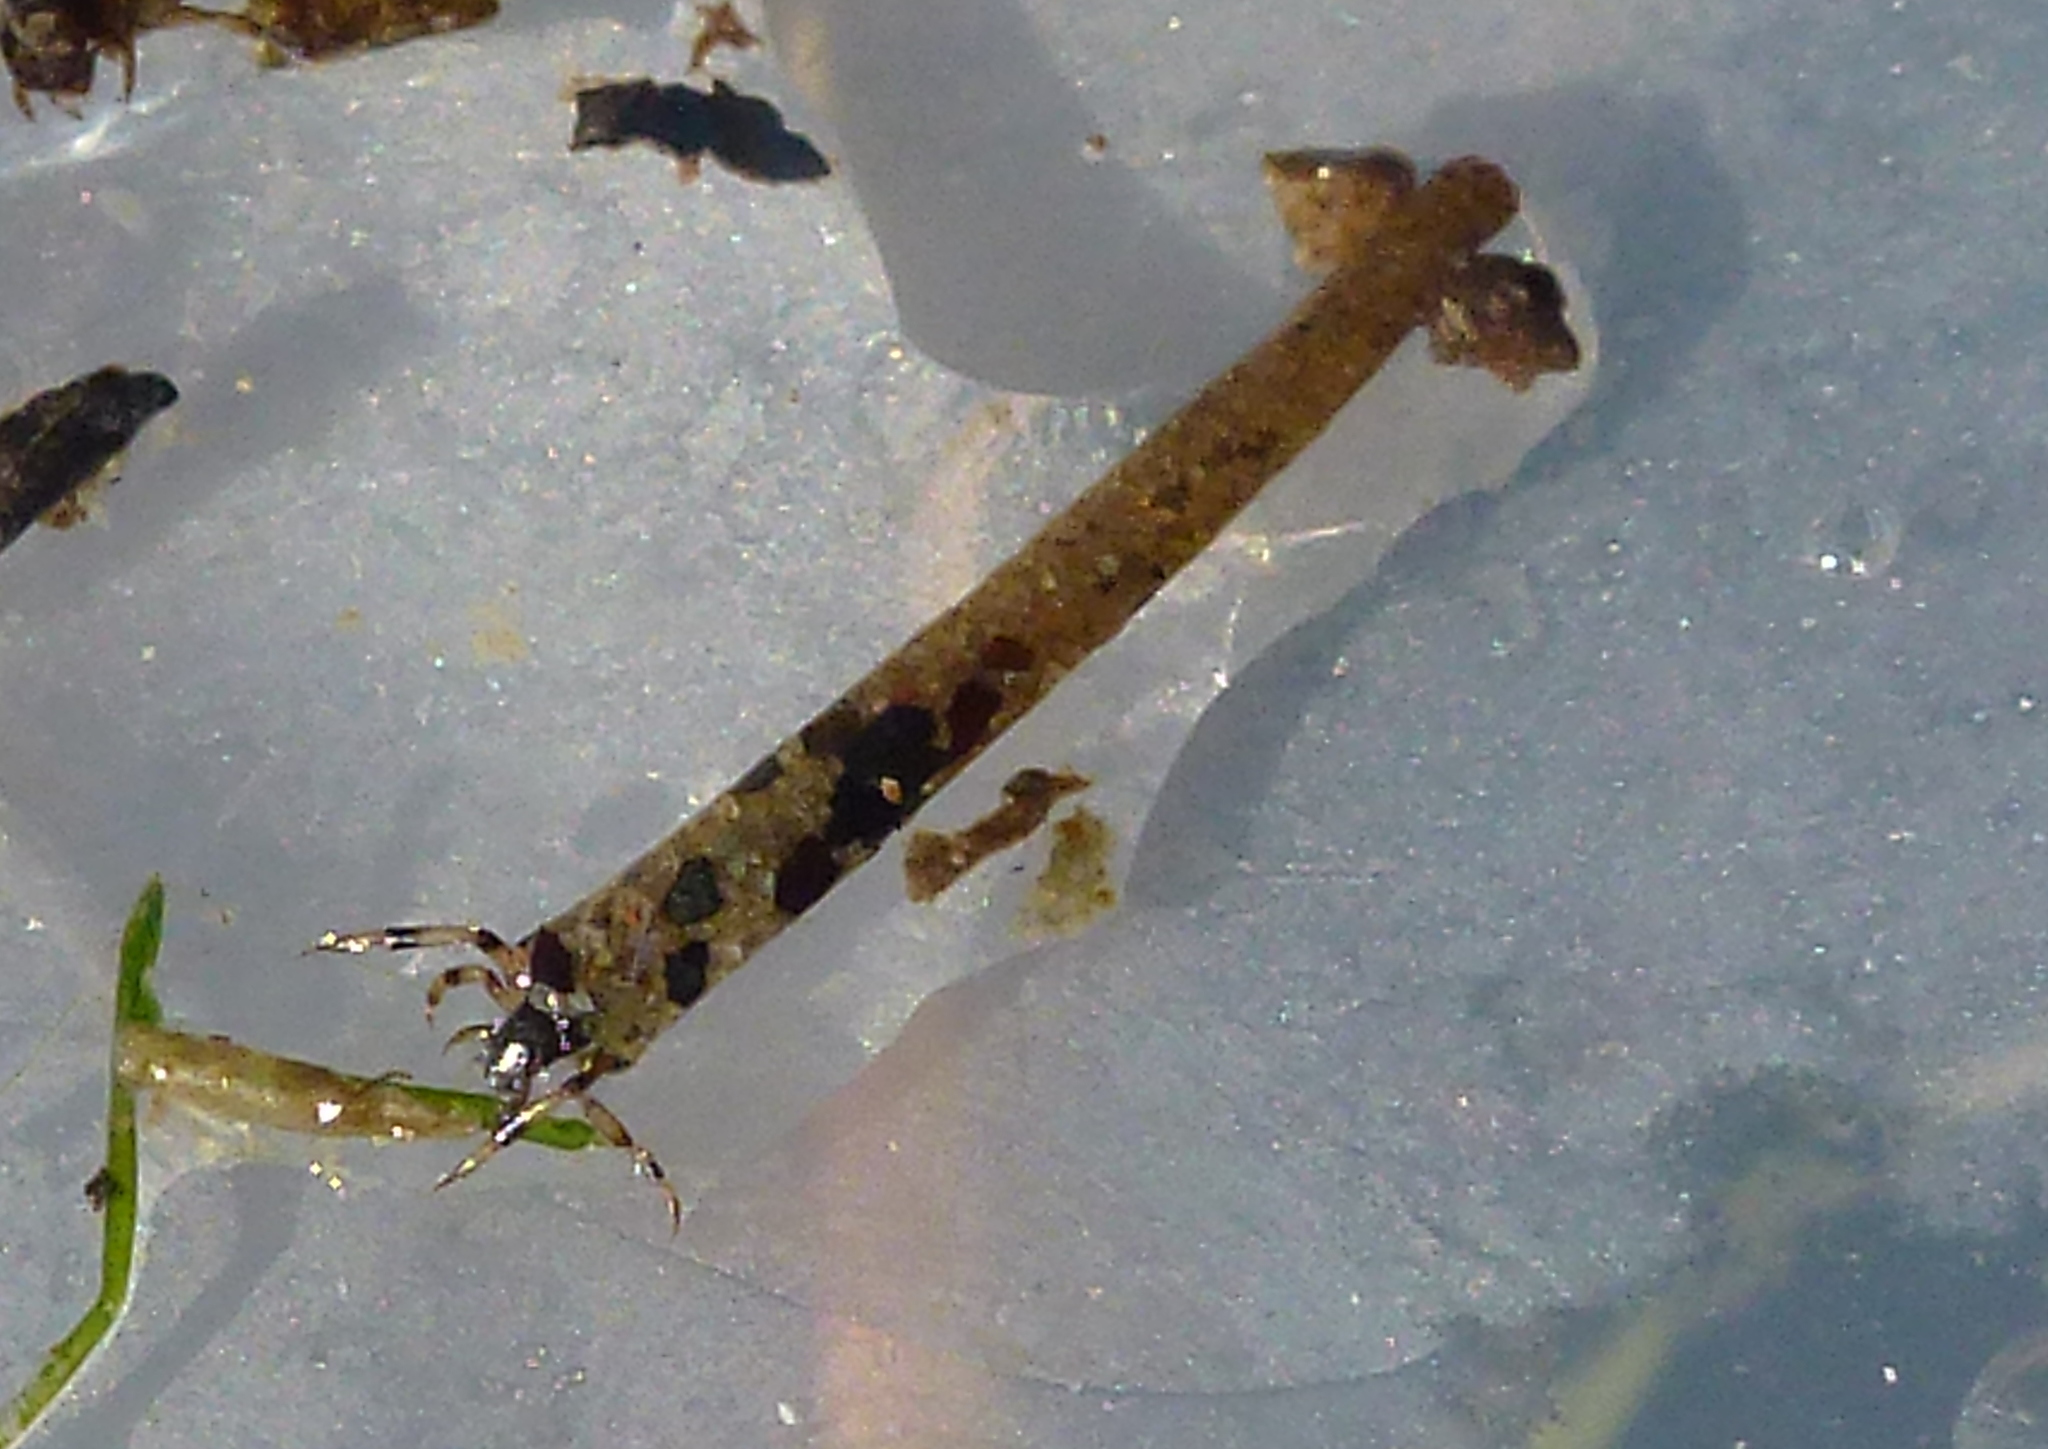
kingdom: Animalia
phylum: Arthropoda
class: Insecta
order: Trichoptera
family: Leptoceridae
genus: Hudsonema
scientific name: Hudsonema amabile
